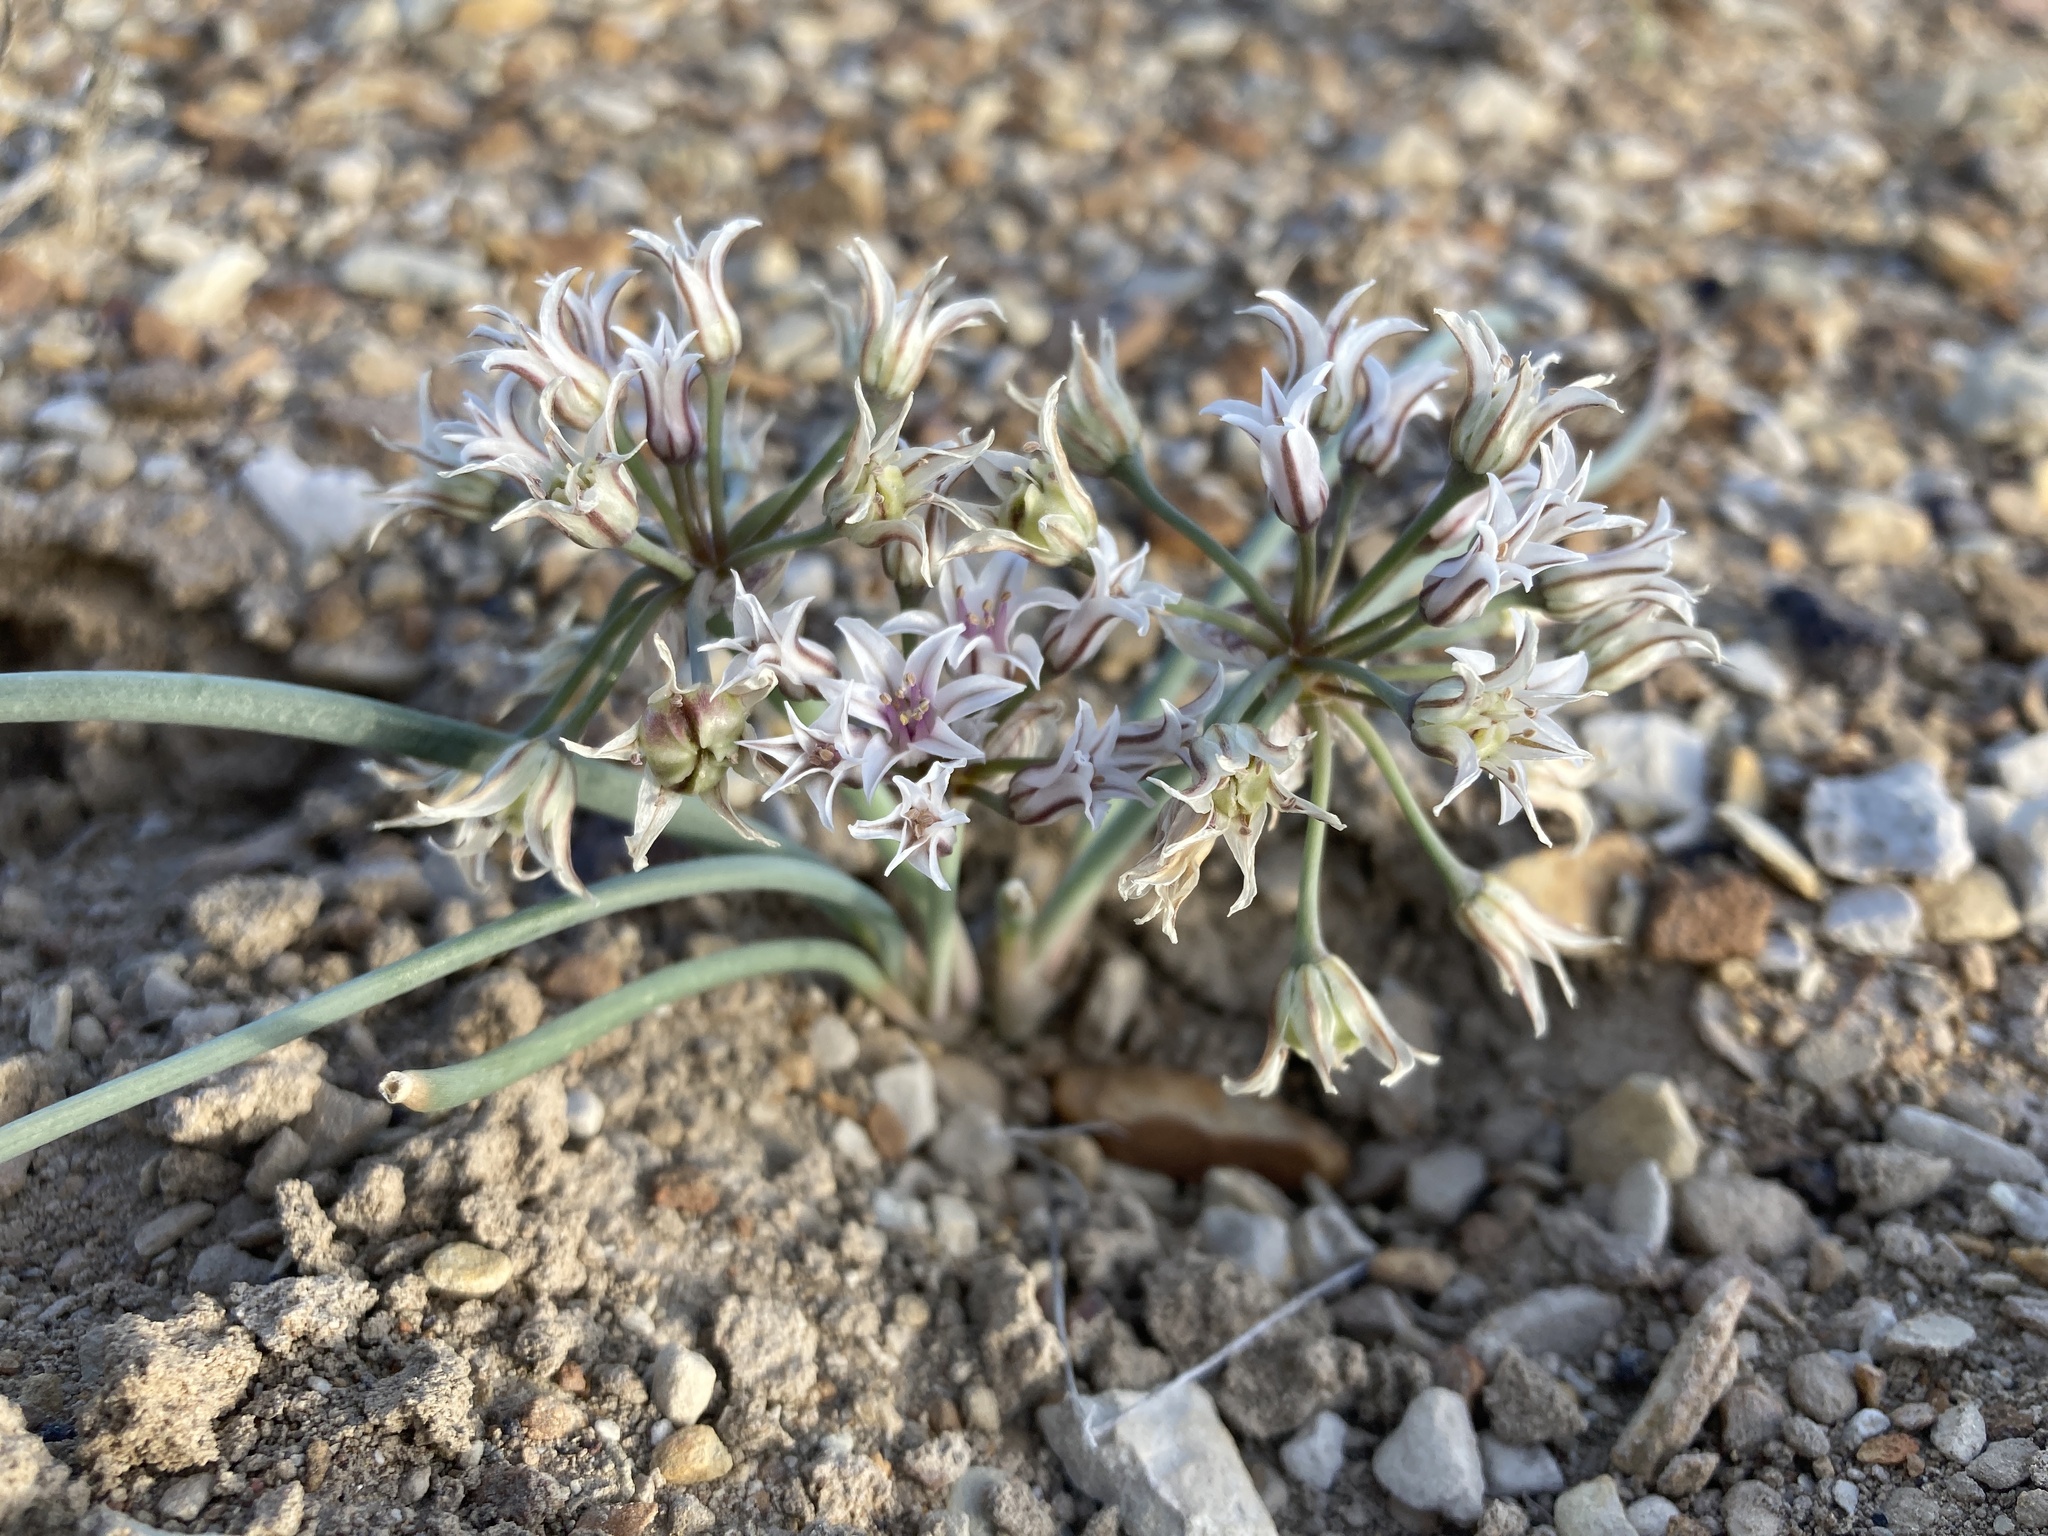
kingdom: Plantae
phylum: Tracheophyta
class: Liliopsida
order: Asparagales
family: Amaryllidaceae
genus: Allium
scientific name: Allium macropetalum
